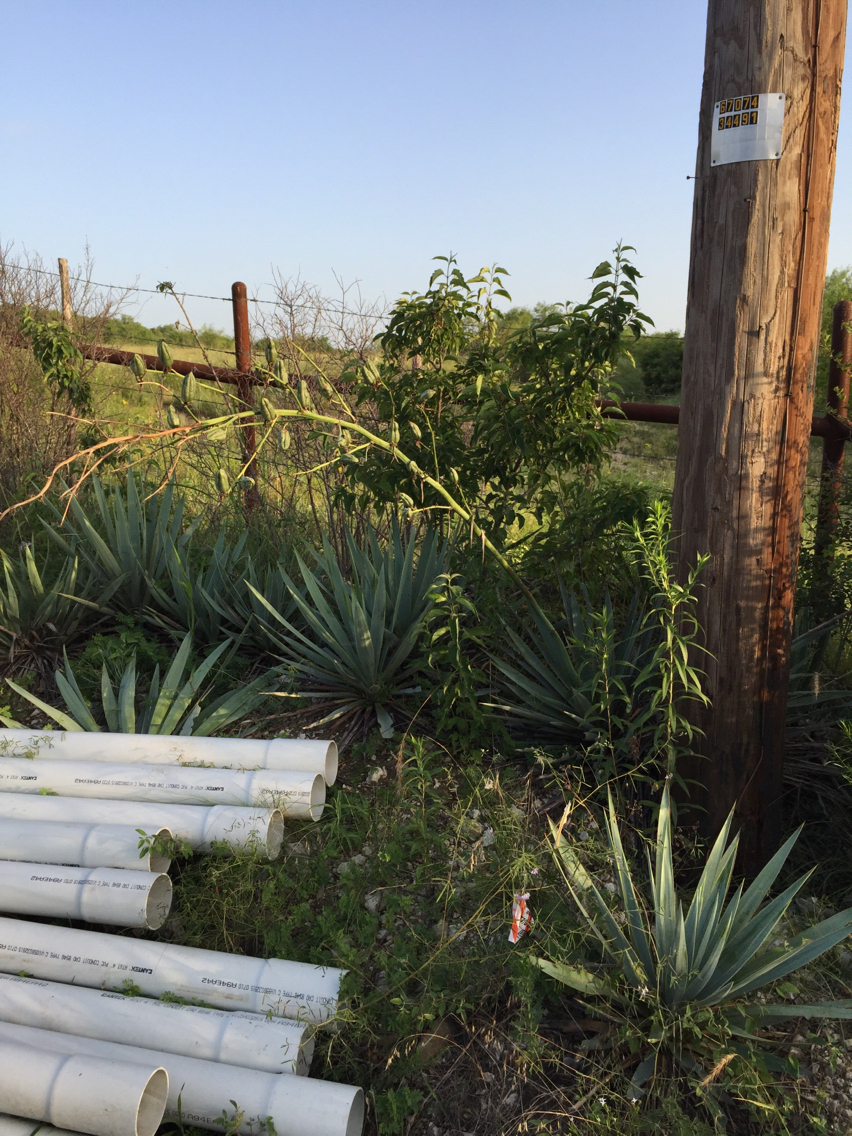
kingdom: Plantae
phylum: Tracheophyta
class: Liliopsida
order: Asparagales
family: Asparagaceae
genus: Yucca
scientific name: Yucca pallida
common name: Pale leaf yucca
